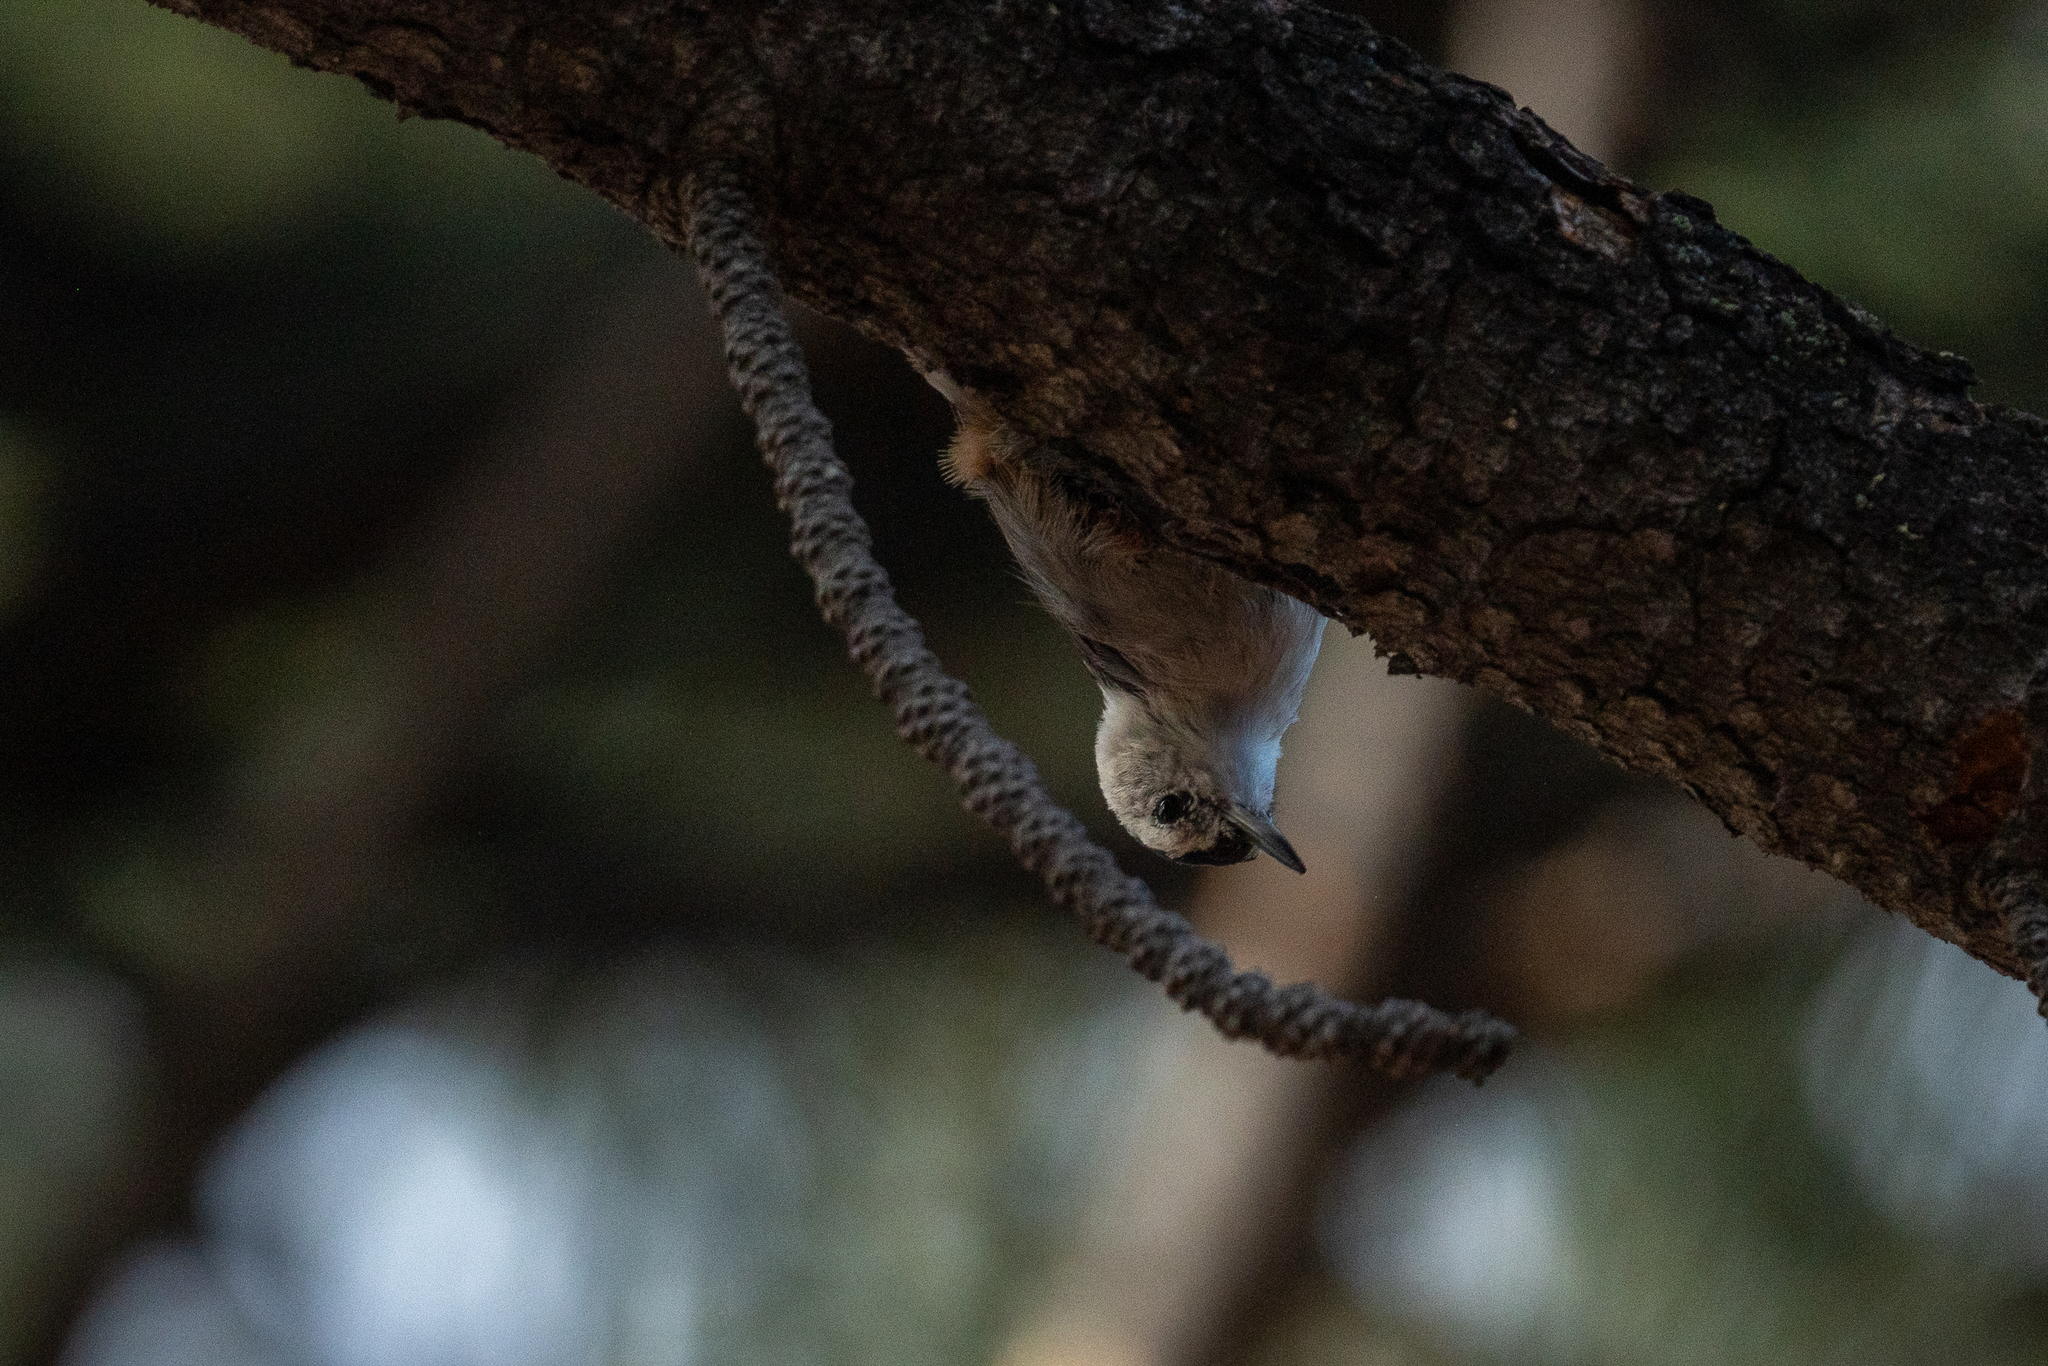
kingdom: Animalia
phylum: Chordata
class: Aves
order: Passeriformes
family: Sittidae
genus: Sitta
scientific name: Sitta carolinensis
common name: White-breasted nuthatch
